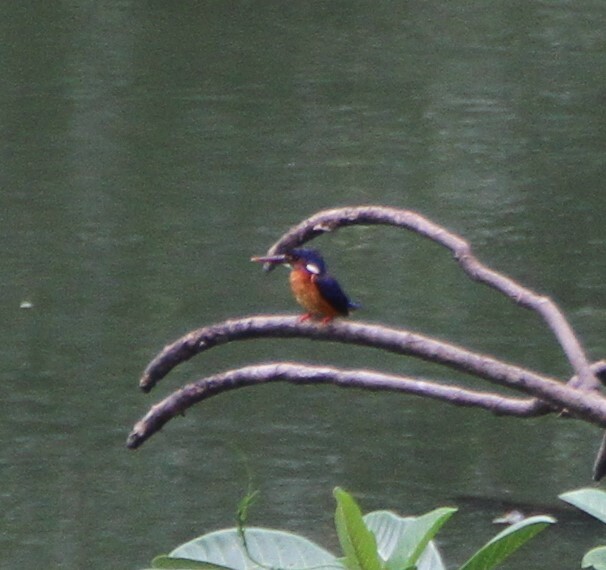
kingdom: Animalia
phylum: Chordata
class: Aves
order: Coraciiformes
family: Alcedinidae
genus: Alcedo
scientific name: Alcedo meninting
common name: Blue-eared kingfisher
